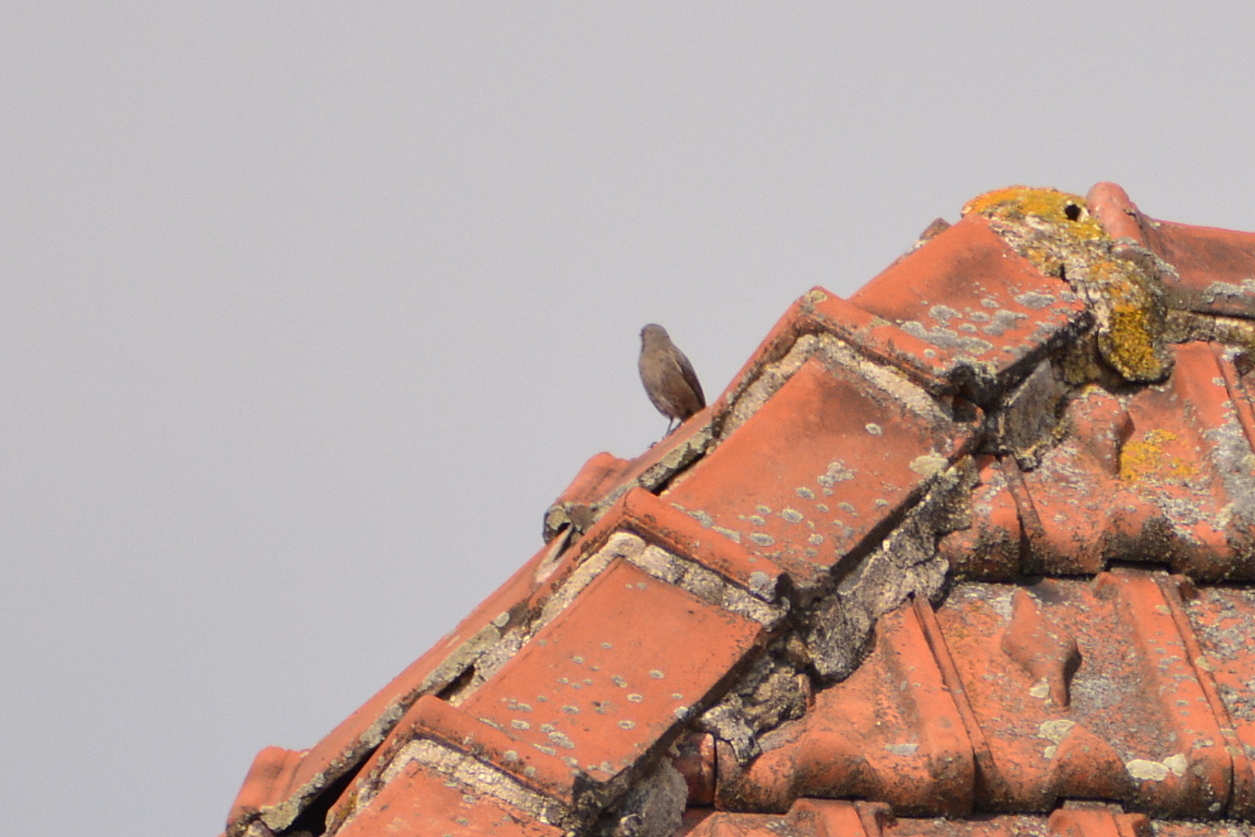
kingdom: Animalia
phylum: Chordata
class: Aves
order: Passeriformes
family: Muscicapidae
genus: Phoenicurus
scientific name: Phoenicurus ochruros
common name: Black redstart
